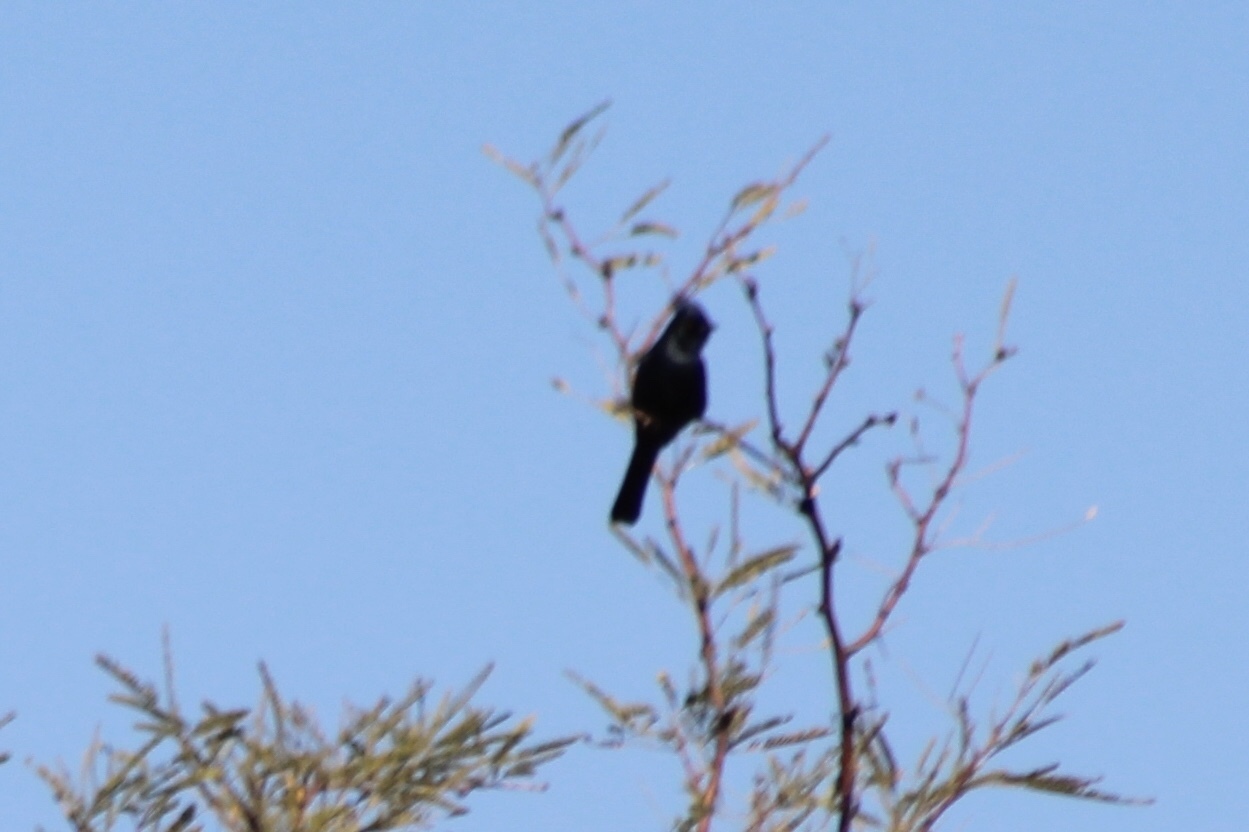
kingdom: Animalia
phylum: Chordata
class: Aves
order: Passeriformes
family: Ptilogonatidae
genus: Phainopepla
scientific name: Phainopepla nitens
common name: Phainopepla
